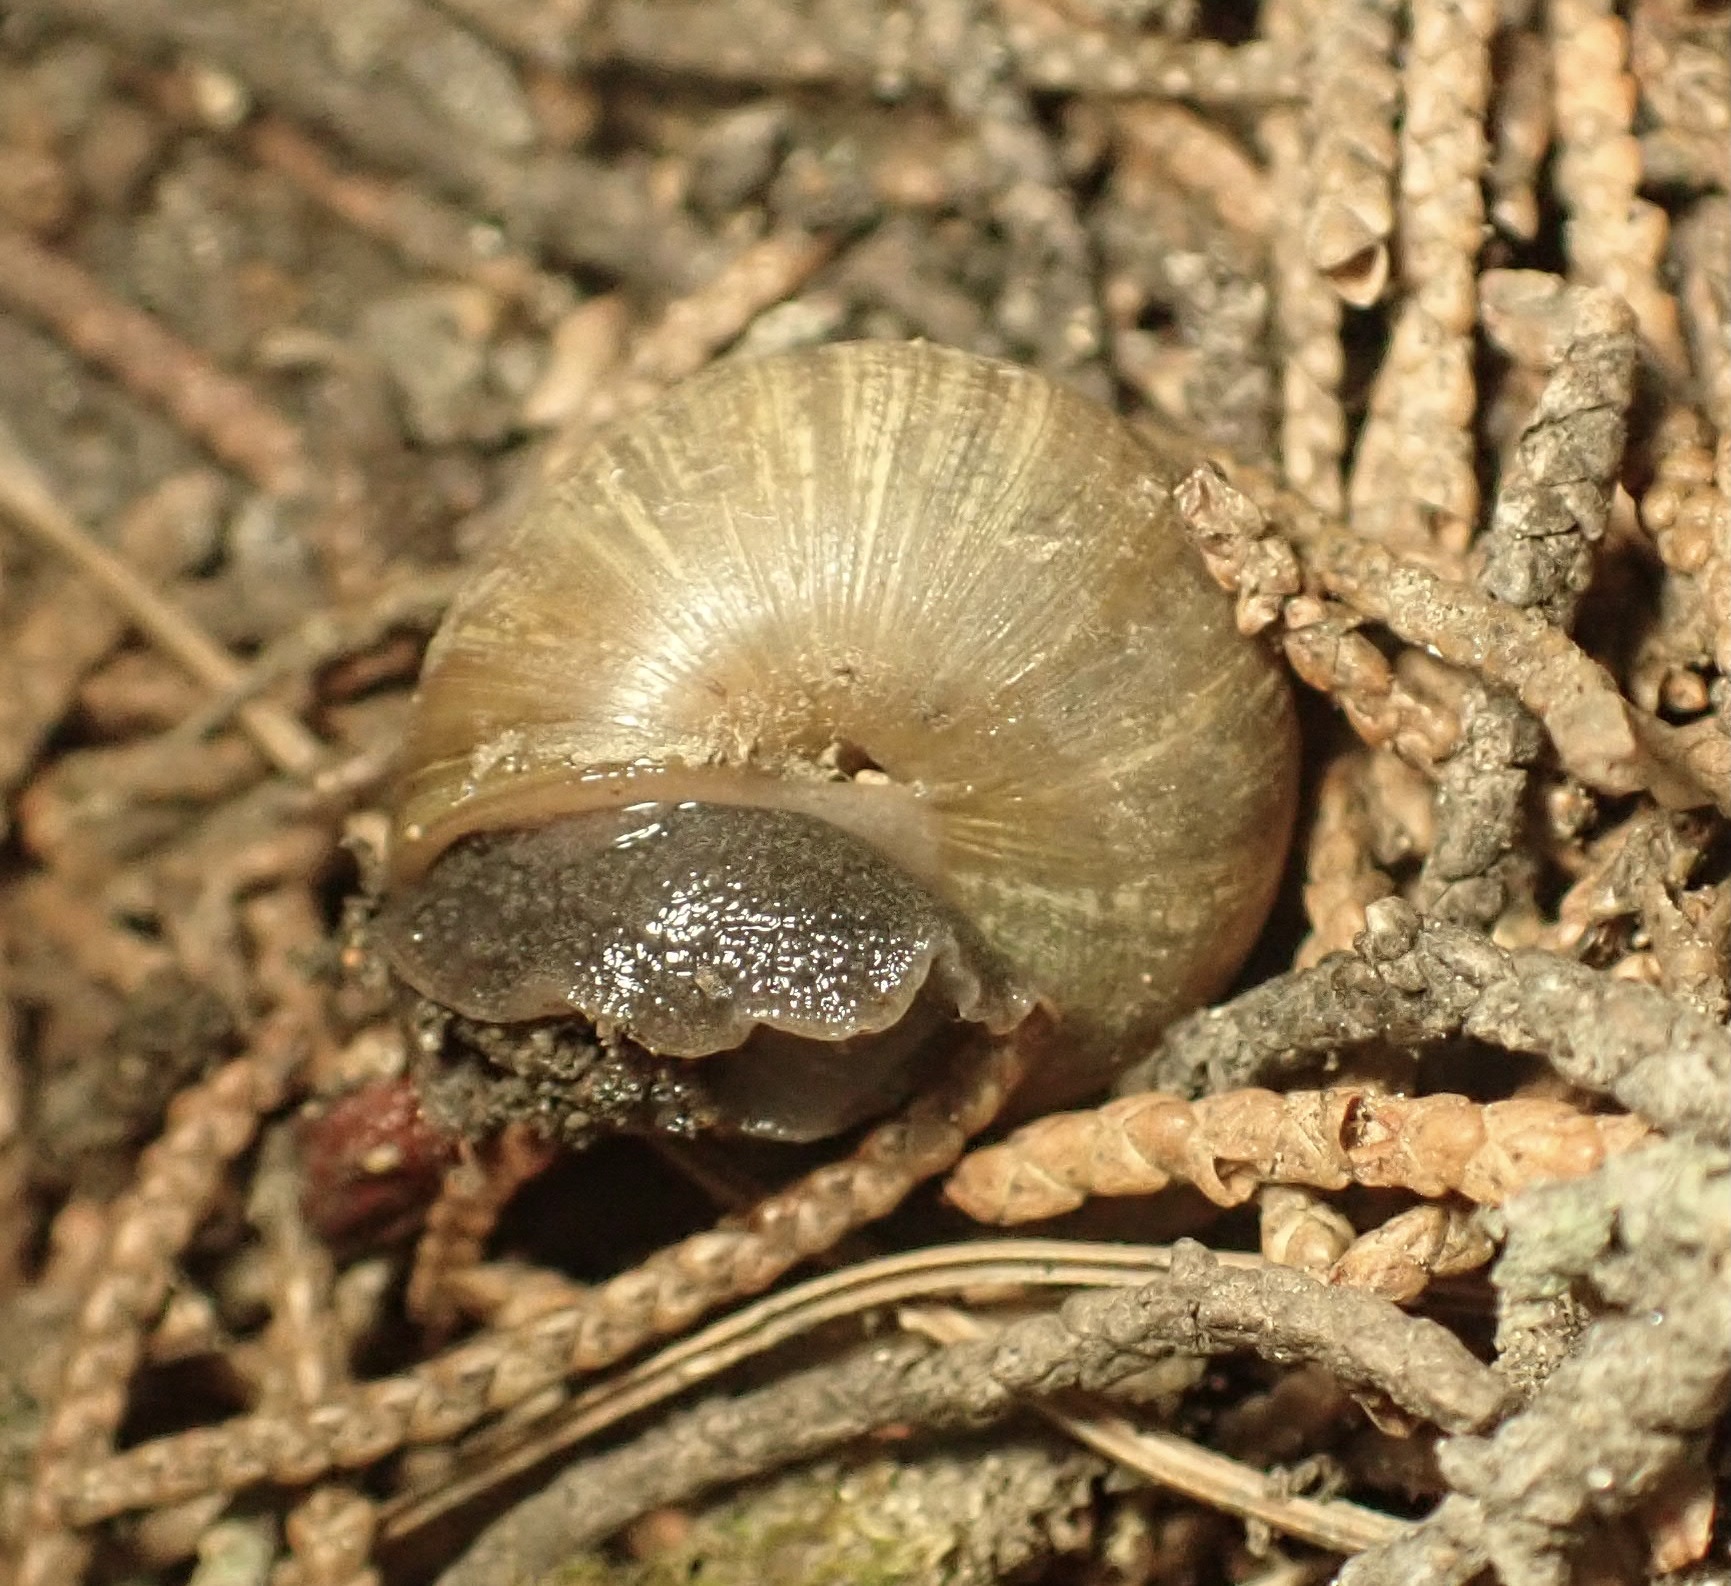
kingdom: Animalia
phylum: Mollusca
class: Gastropoda
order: Stylommatophora
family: Xanthonychidae
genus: Helminthoglypta
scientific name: Helminthoglypta nickliniana
